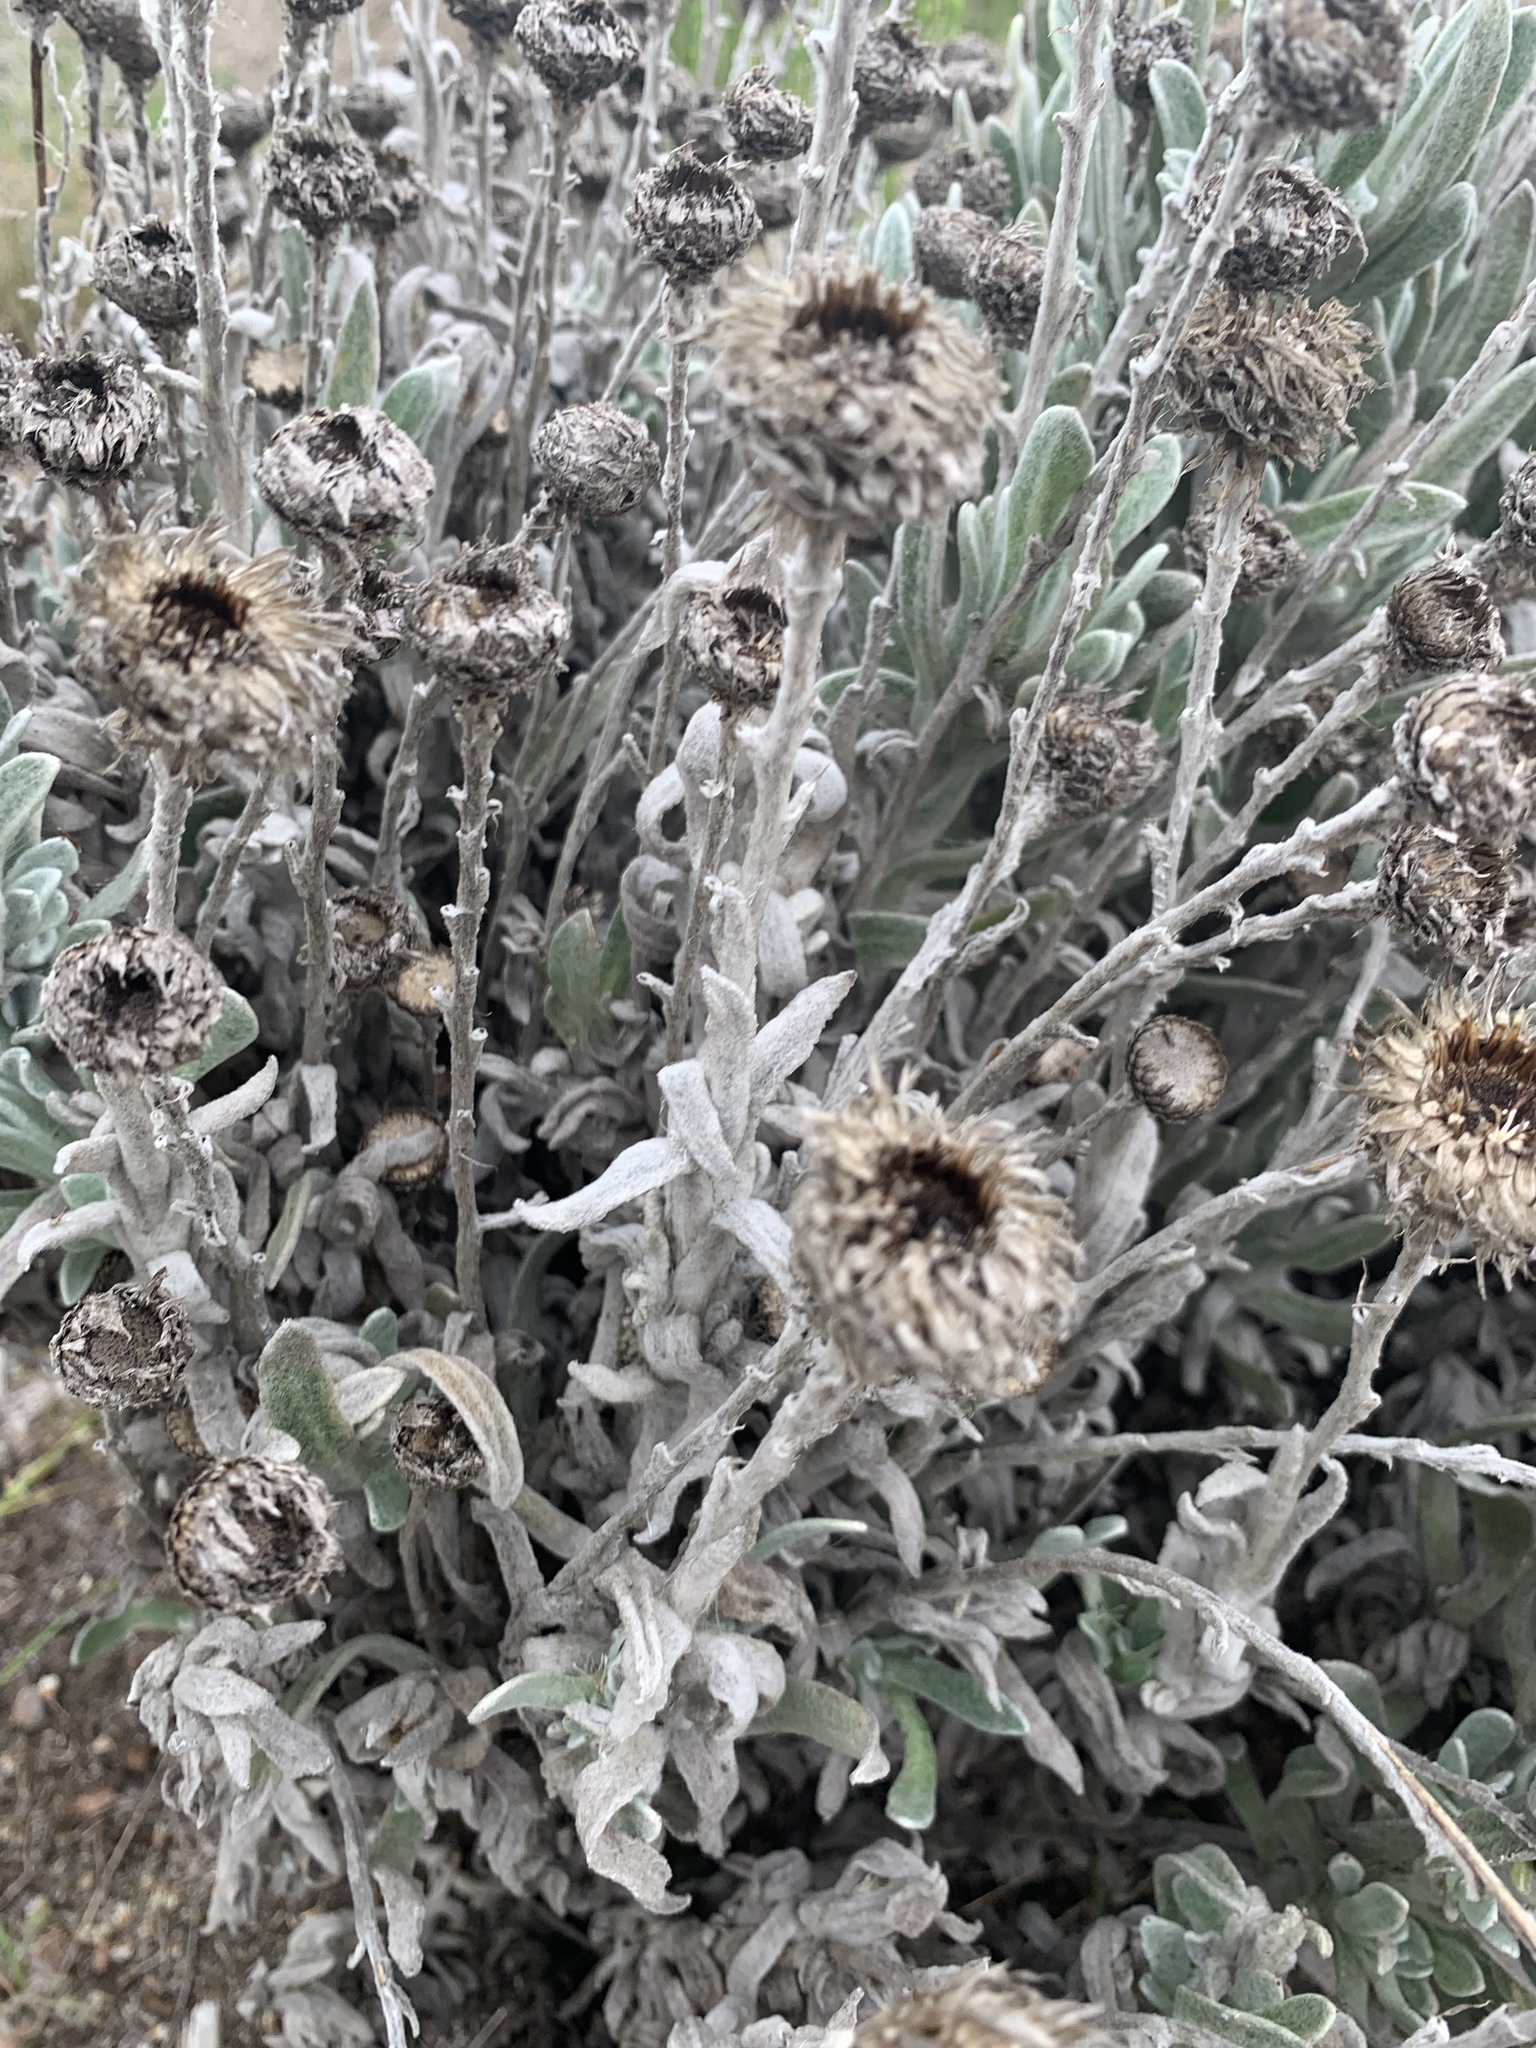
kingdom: Plantae
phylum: Tracheophyta
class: Magnoliopsida
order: Asterales
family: Asteraceae
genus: Syncarpha
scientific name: Syncarpha vestita
